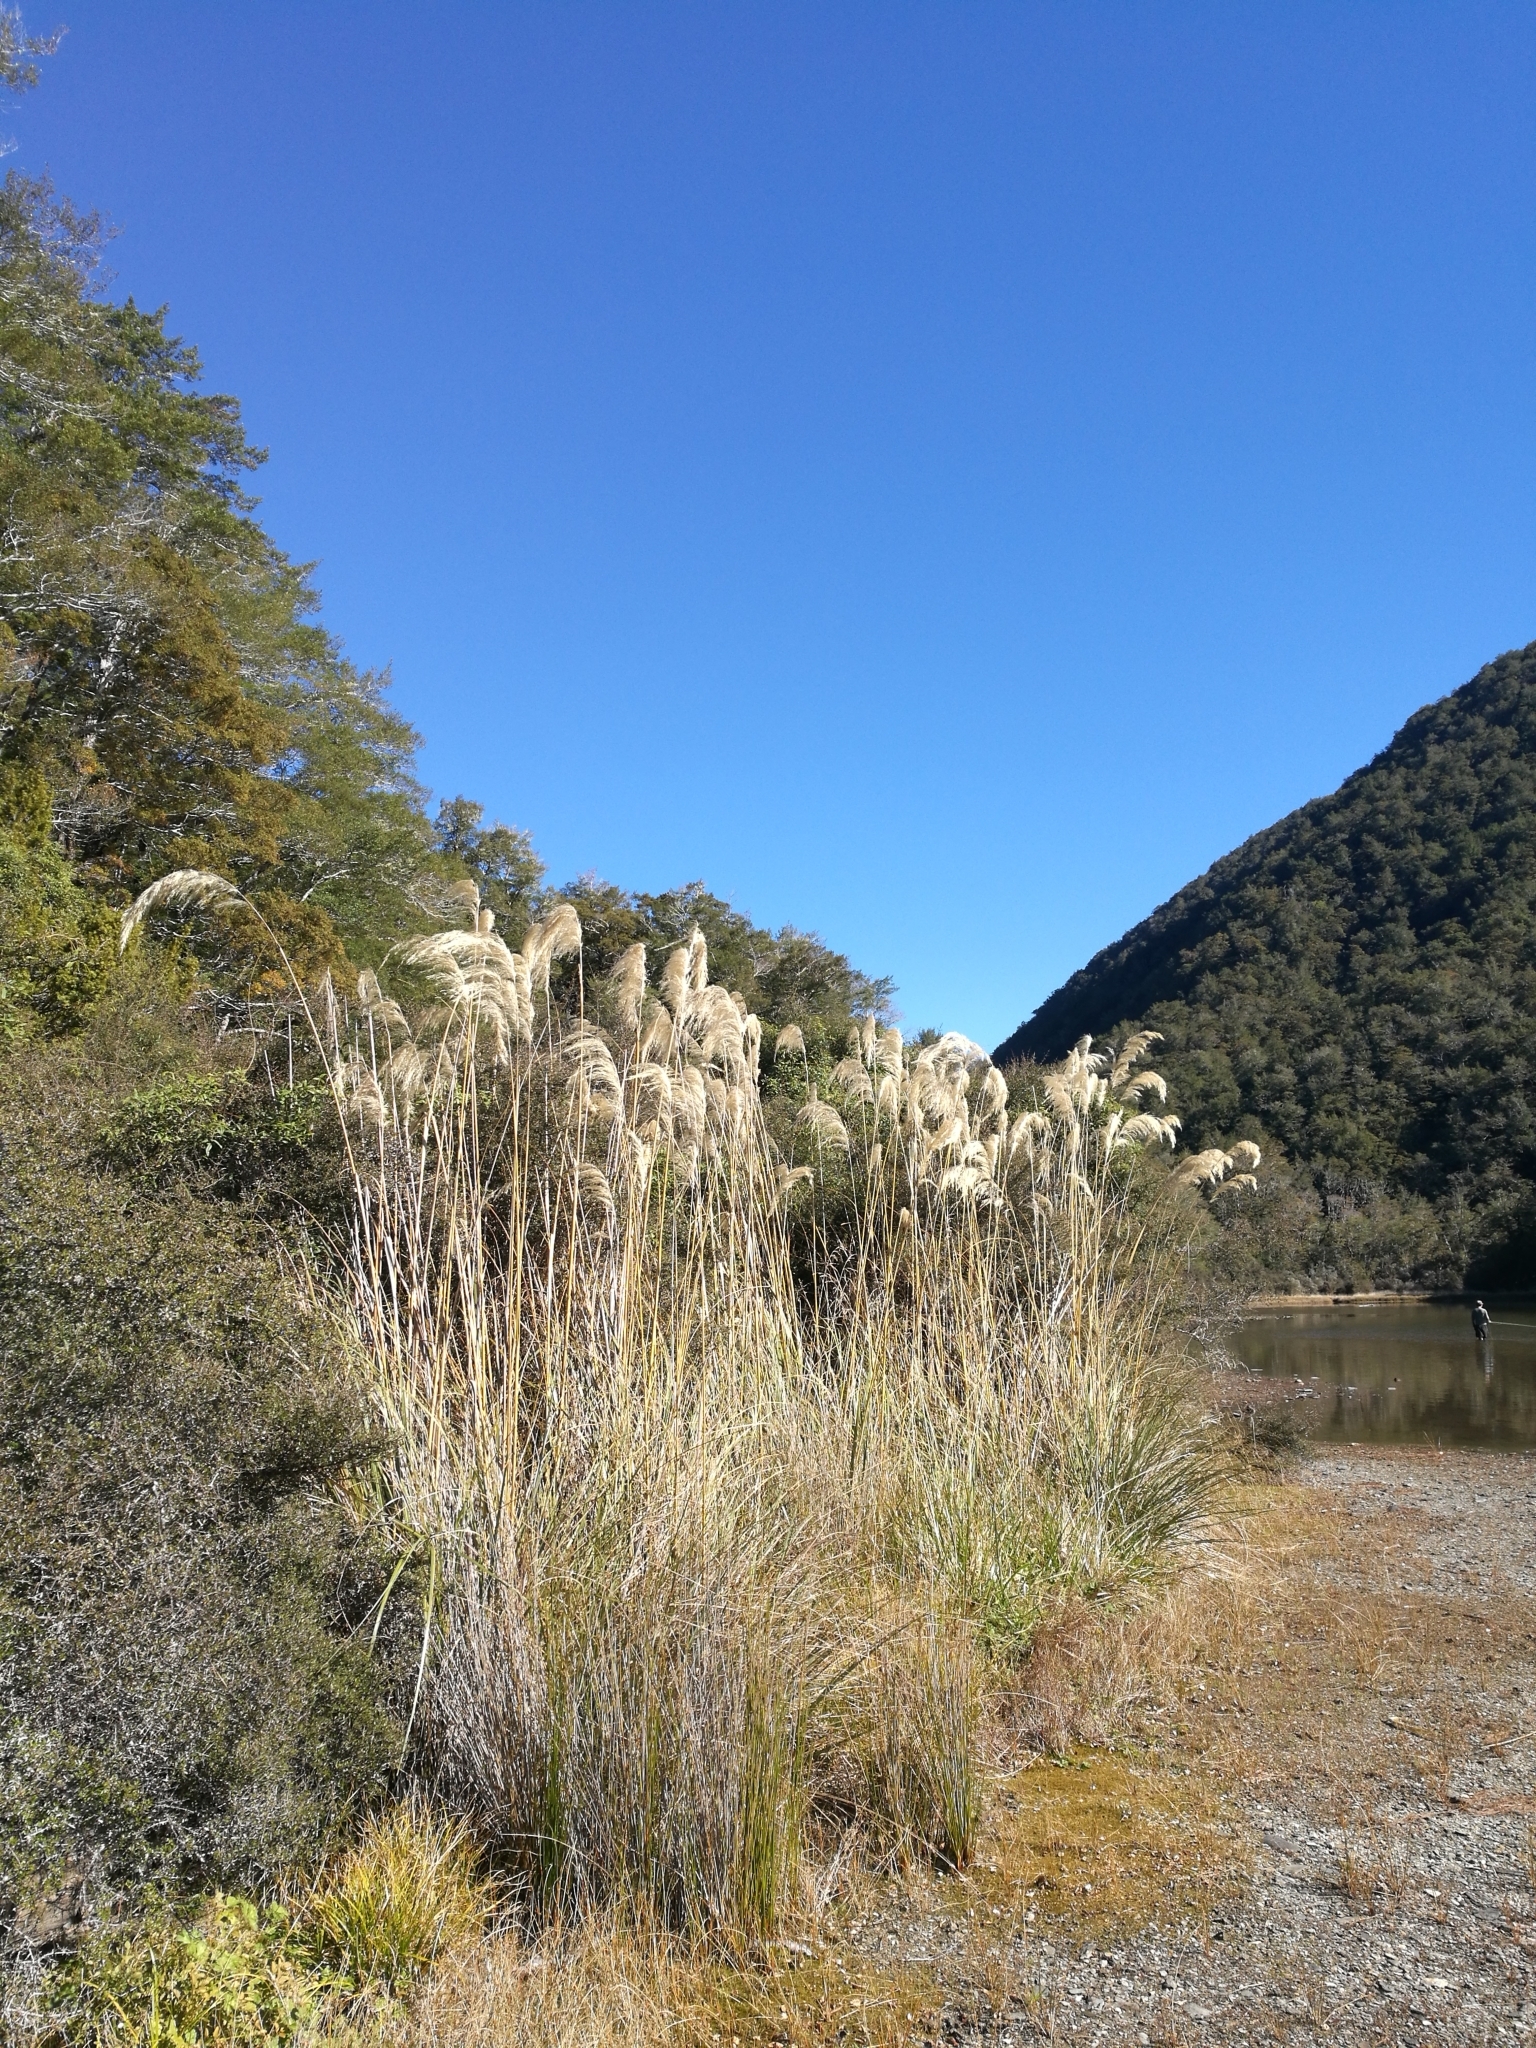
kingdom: Plantae
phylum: Tracheophyta
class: Liliopsida
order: Poales
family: Poaceae
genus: Austroderia
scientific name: Austroderia richardii
